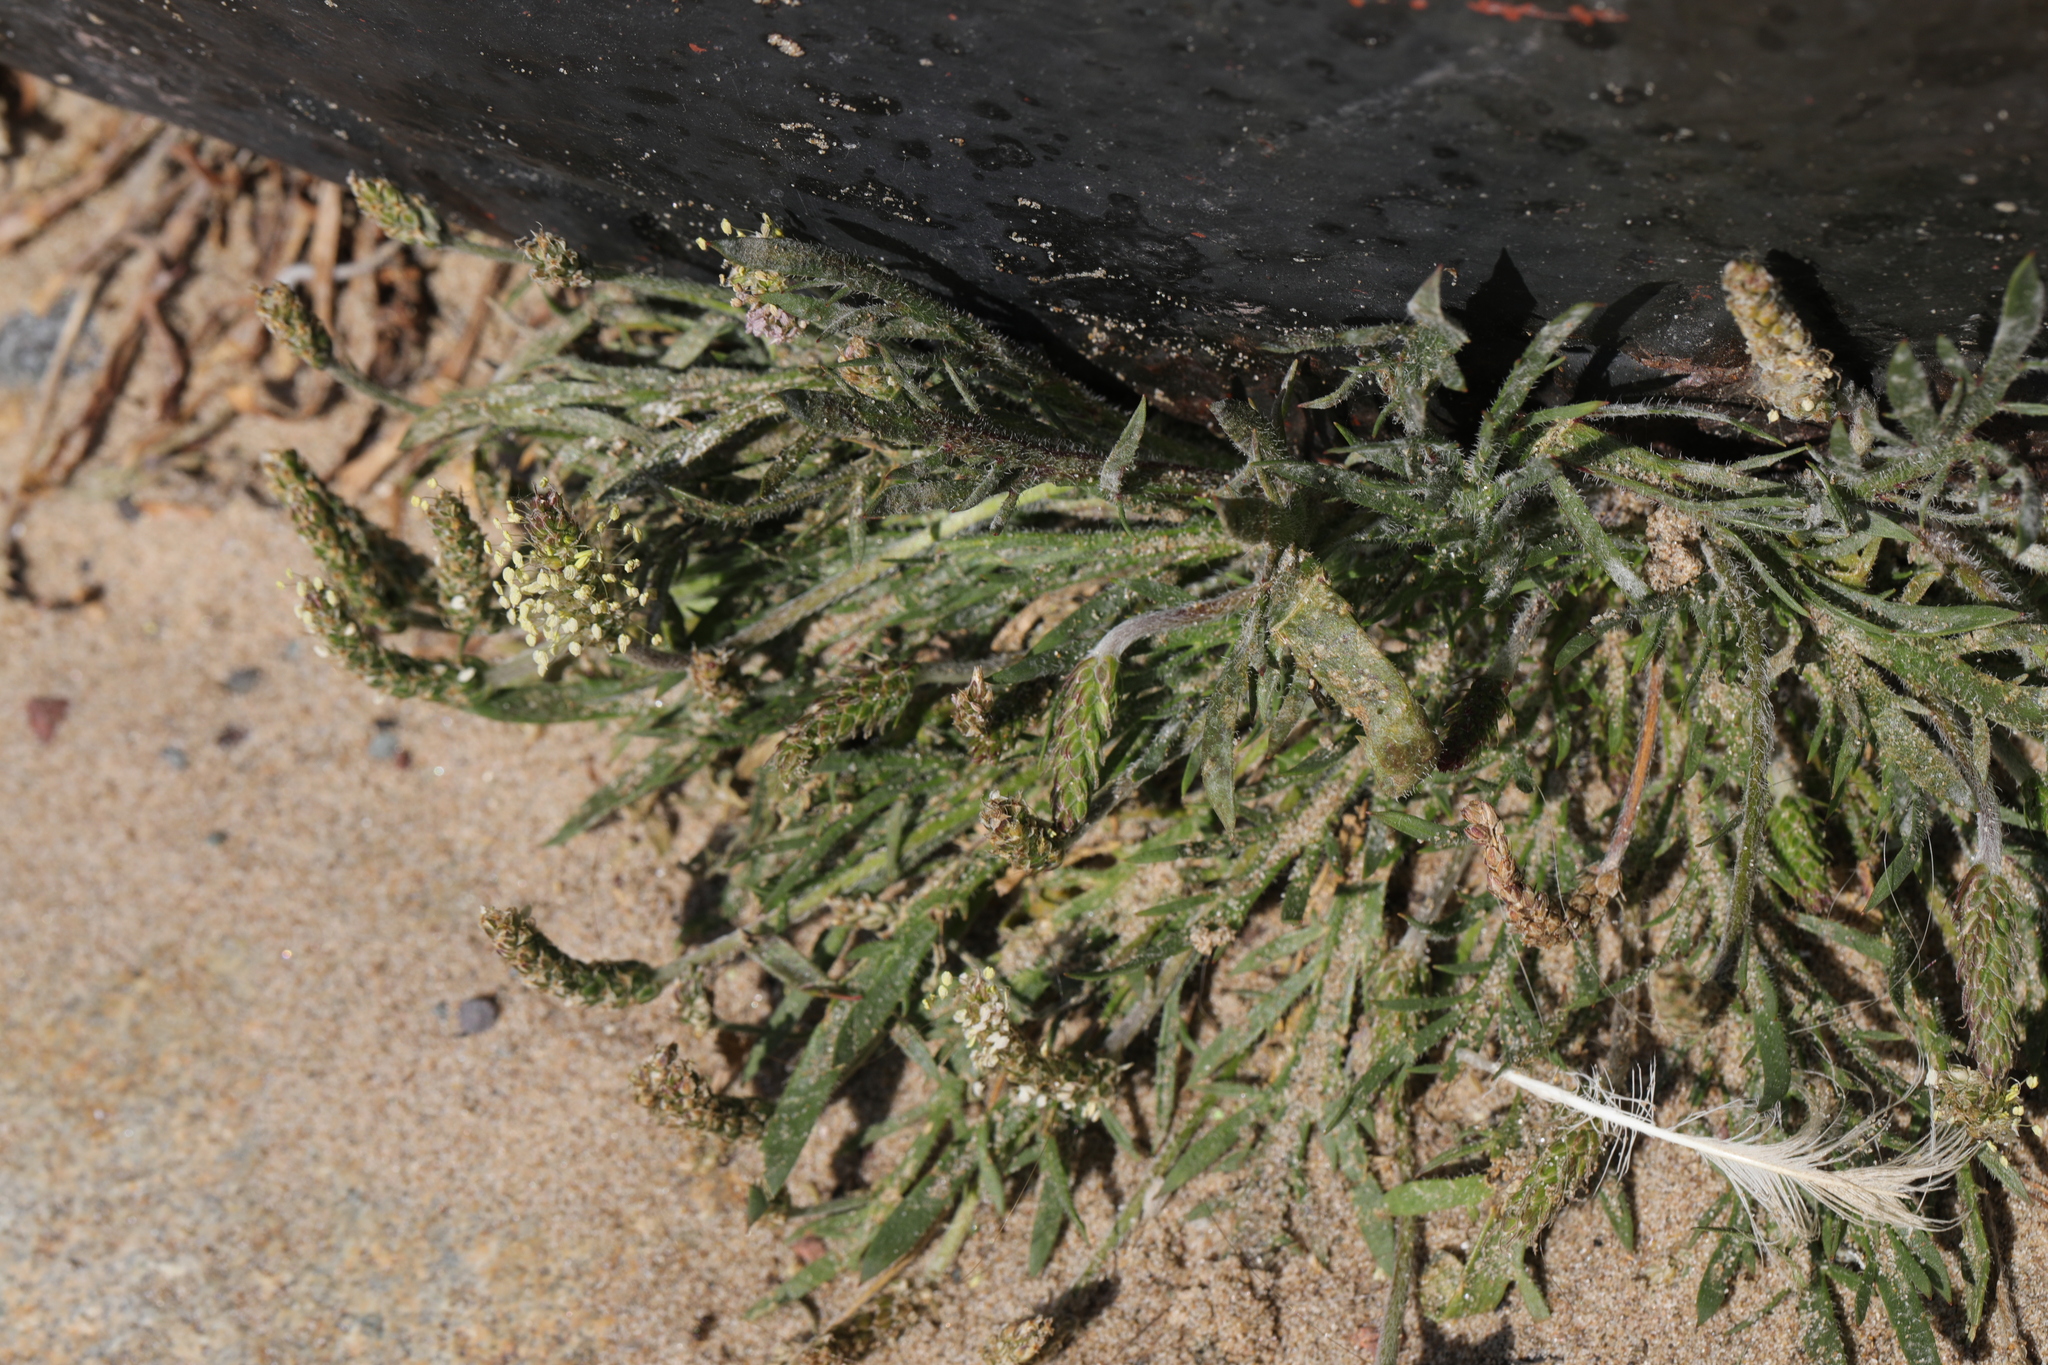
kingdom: Plantae
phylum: Tracheophyta
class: Magnoliopsida
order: Lamiales
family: Plantaginaceae
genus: Plantago
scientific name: Plantago coronopus
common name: Buck's-horn plantain
